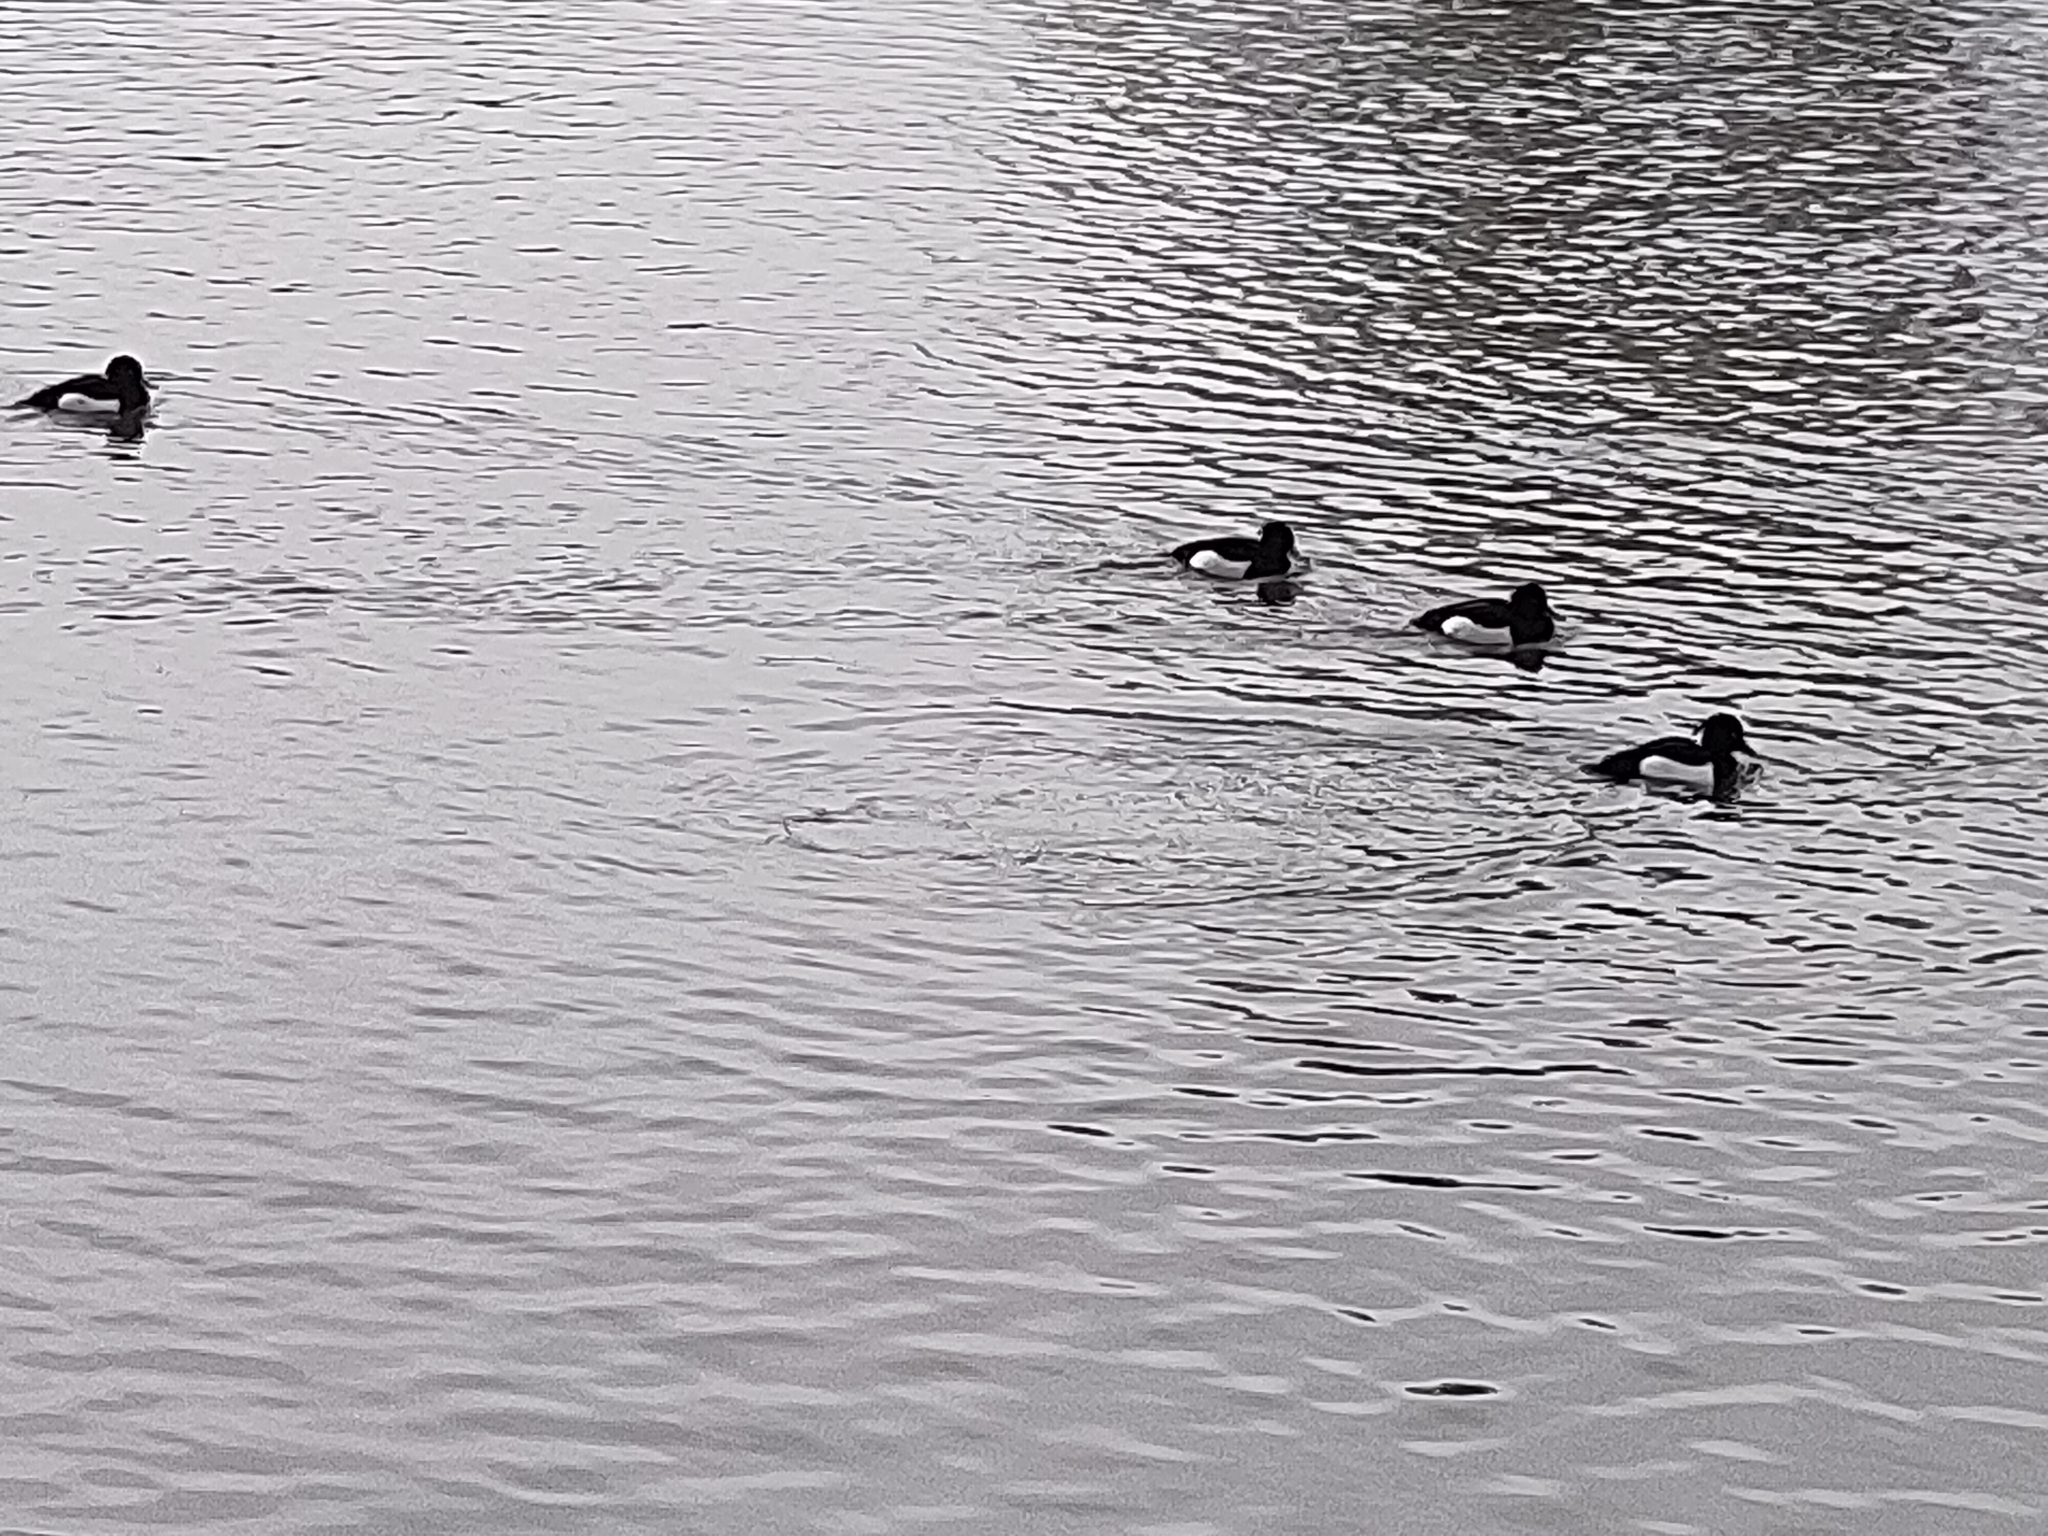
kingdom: Animalia
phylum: Chordata
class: Aves
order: Anseriformes
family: Anatidae
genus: Aythya
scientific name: Aythya fuligula
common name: Tufted duck
